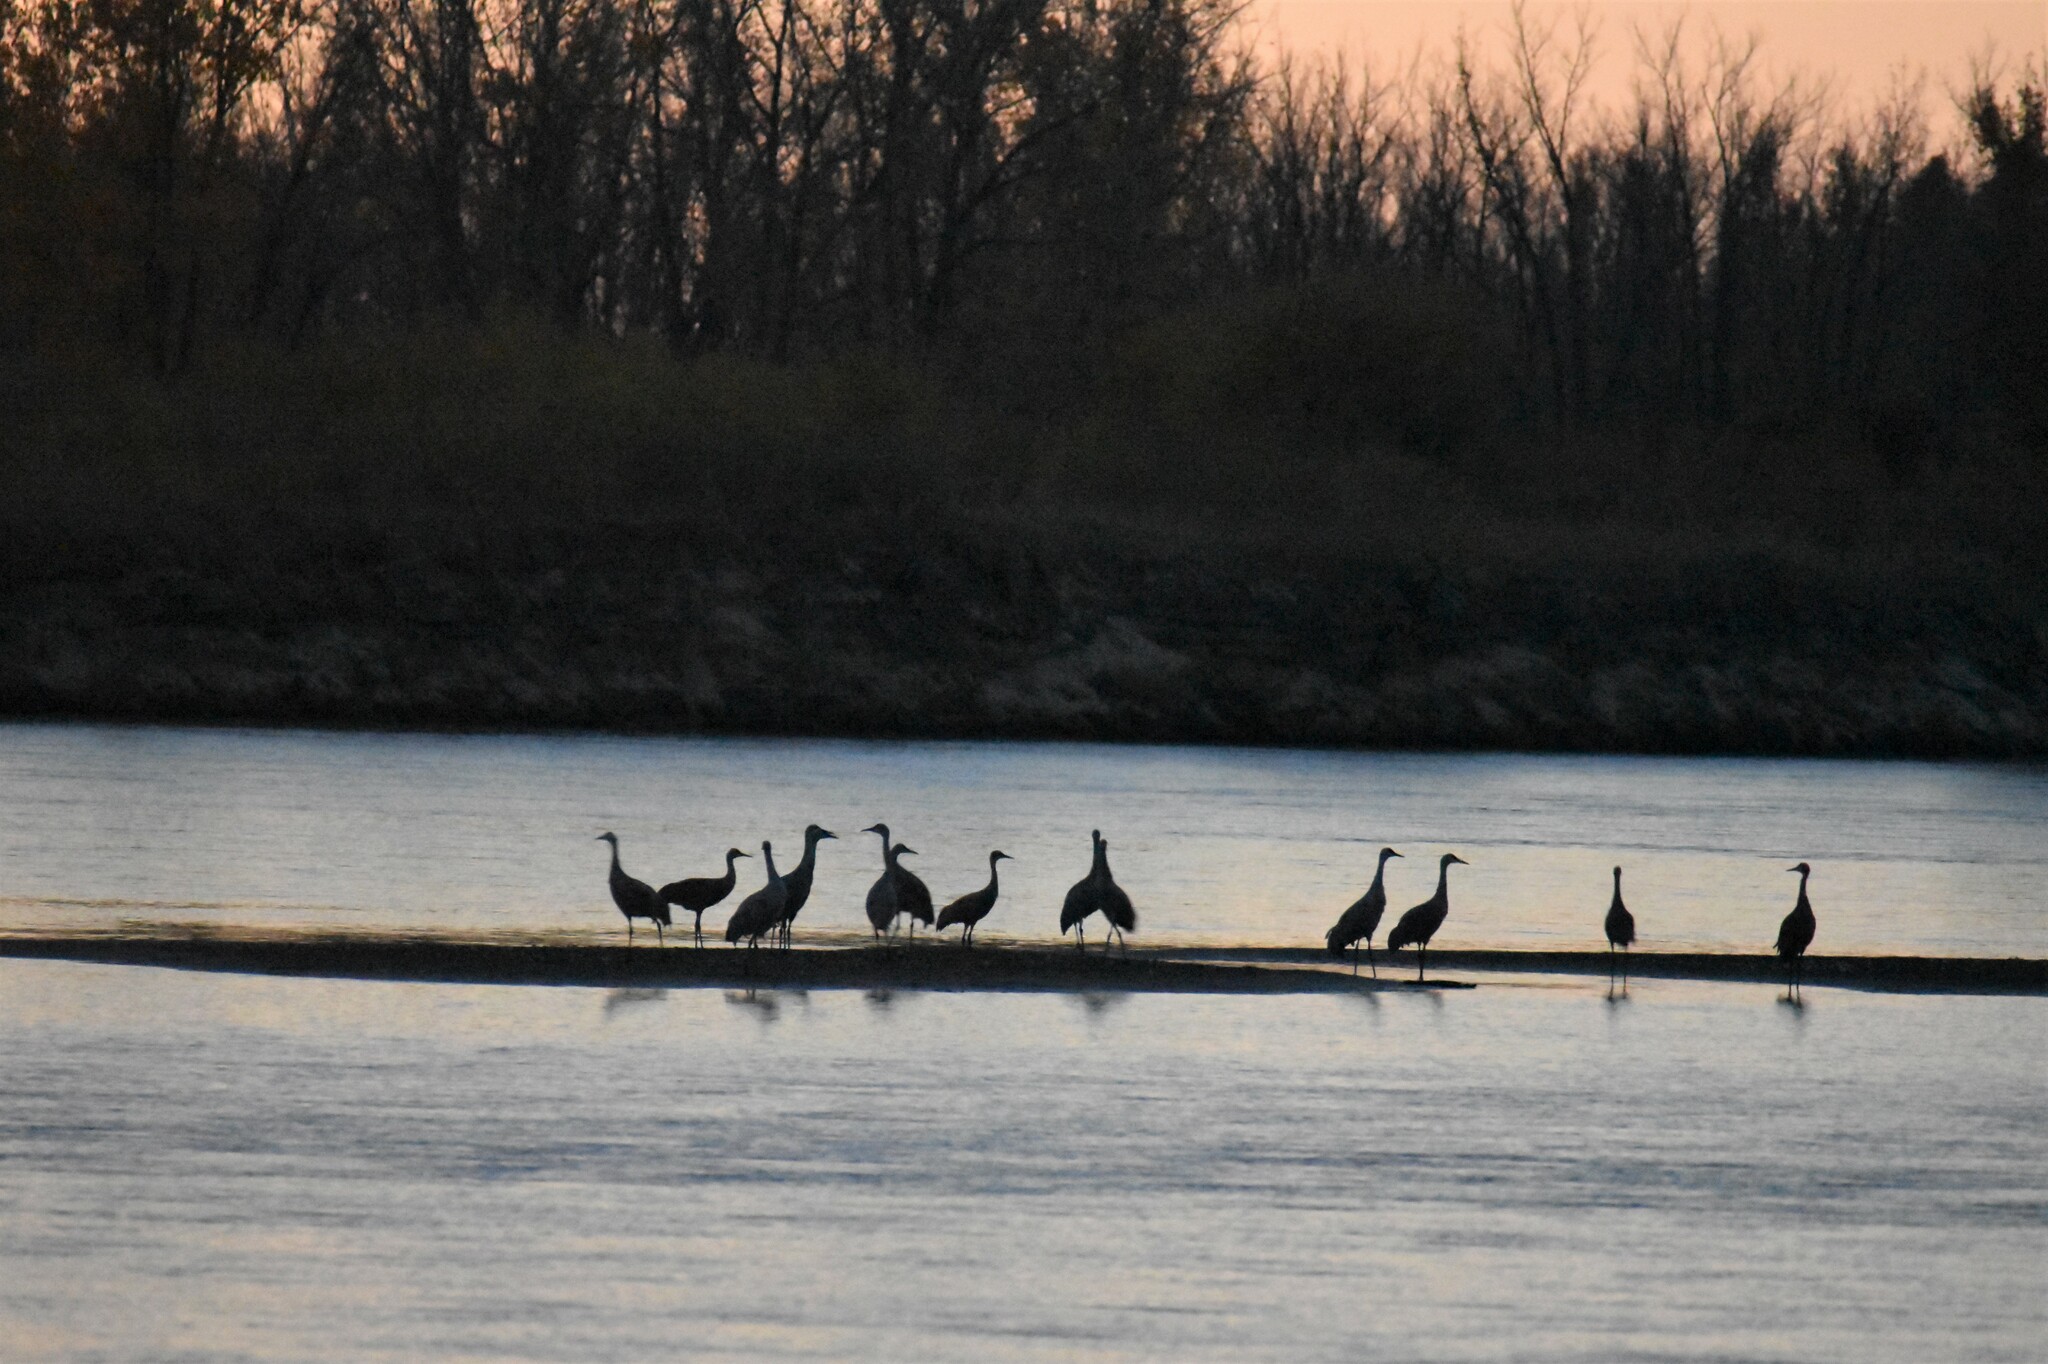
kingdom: Animalia
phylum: Chordata
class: Aves
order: Gruiformes
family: Gruidae
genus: Grus
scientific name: Grus canadensis
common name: Sandhill crane
